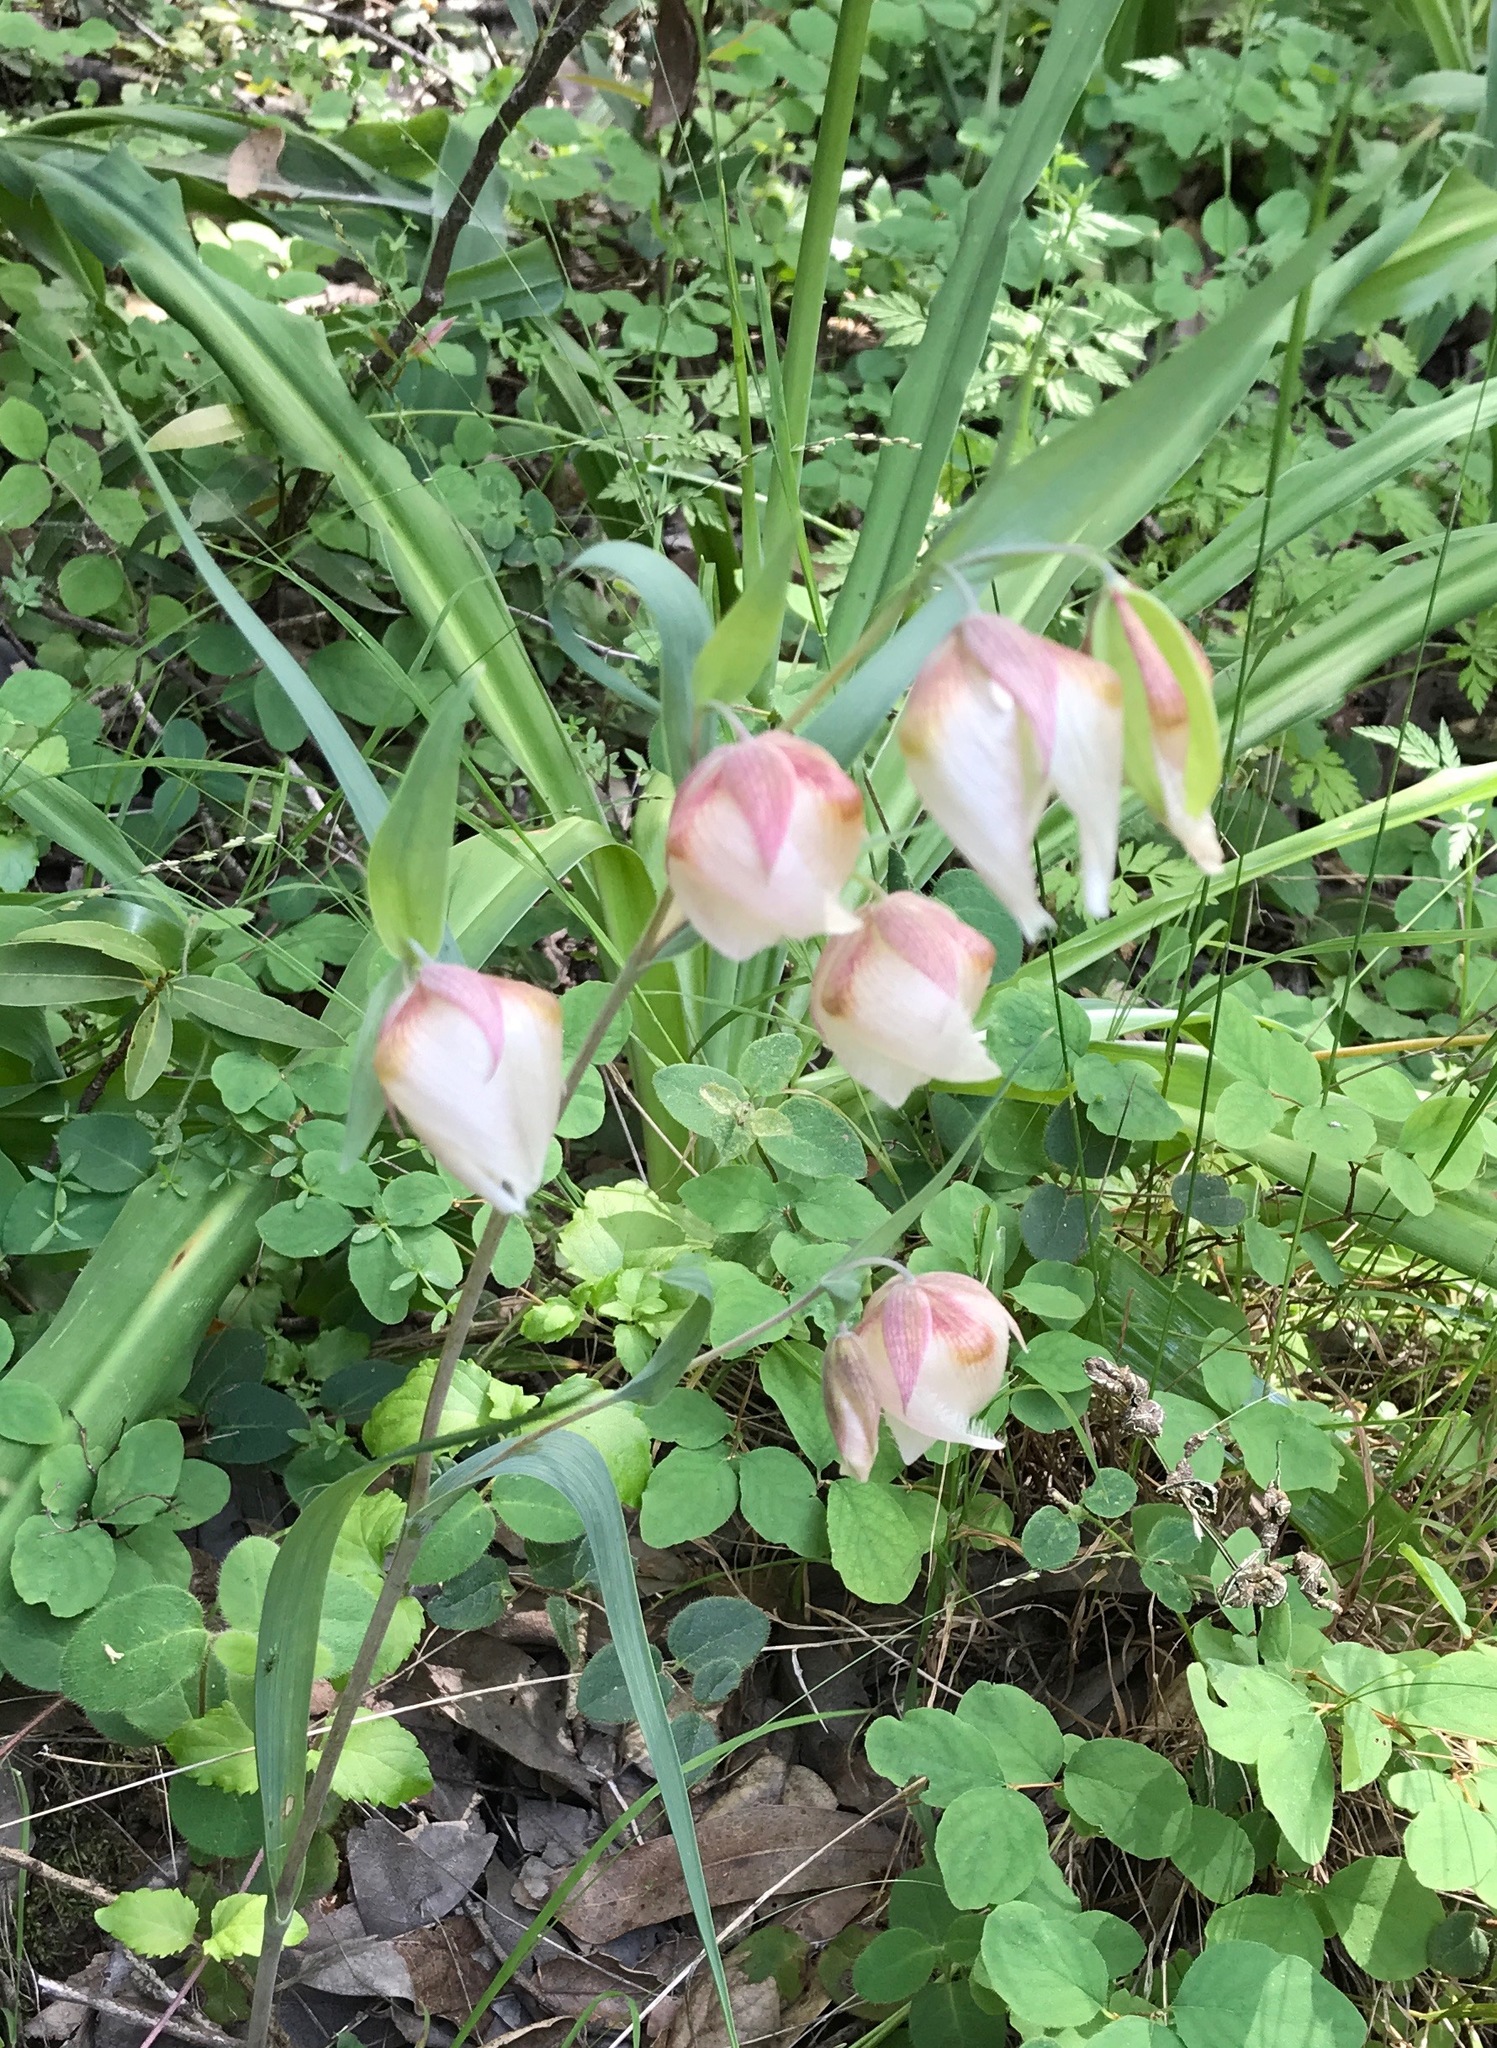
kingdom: Plantae
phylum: Tracheophyta
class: Liliopsida
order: Liliales
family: Liliaceae
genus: Calochortus
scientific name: Calochortus albus
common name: Fairy-lantern
